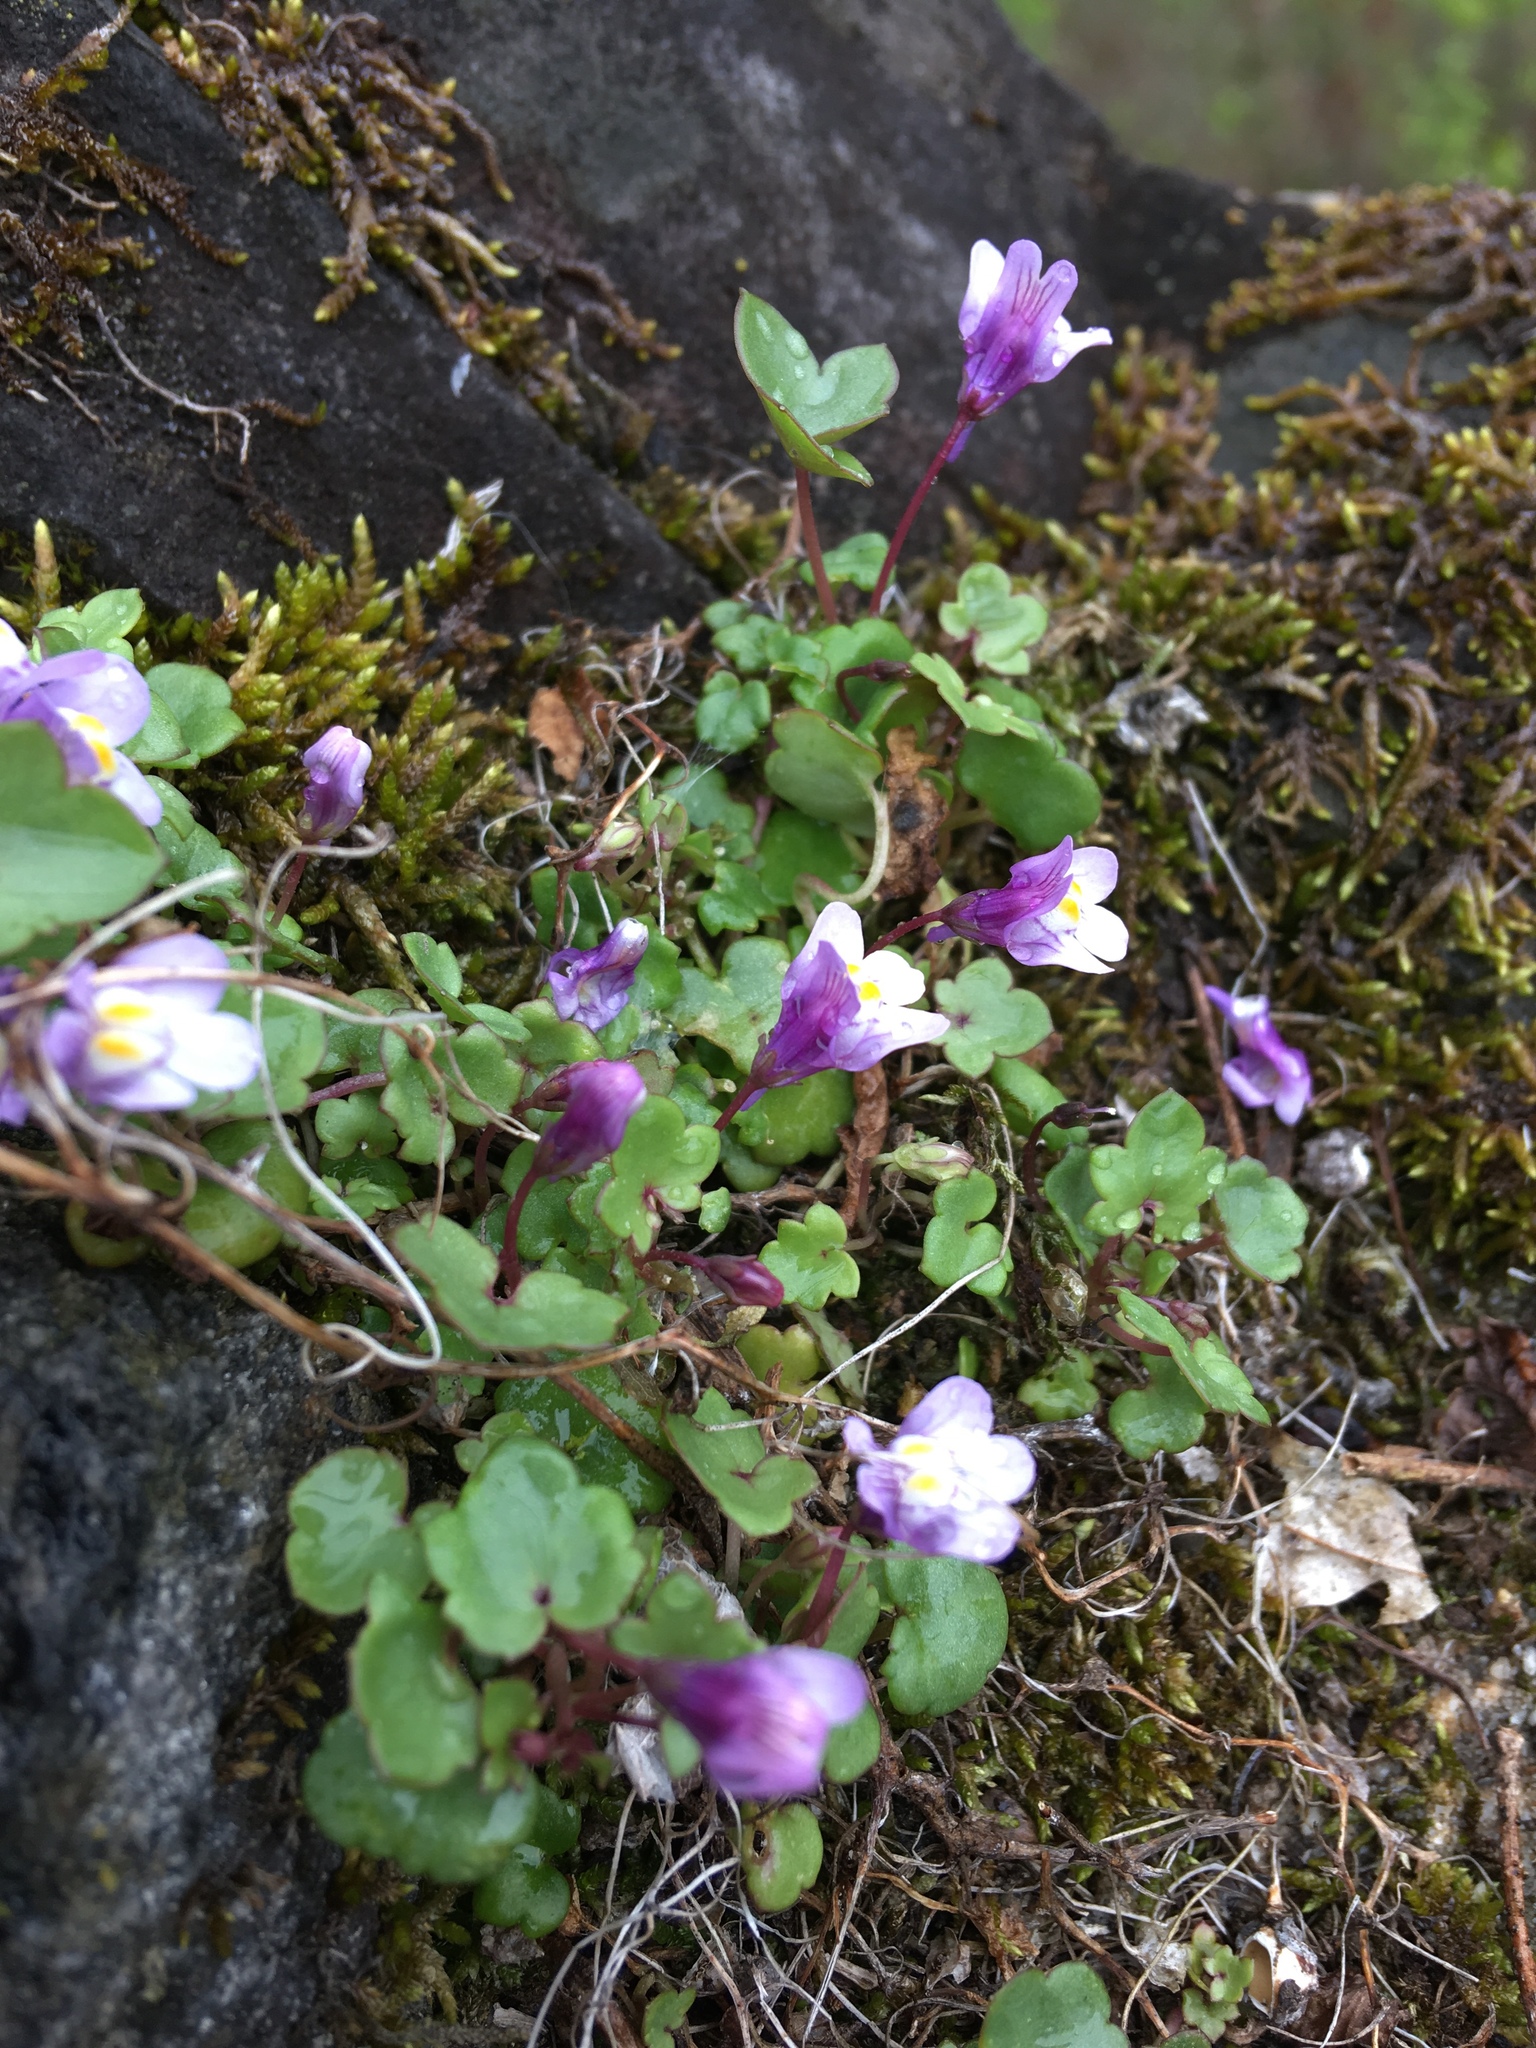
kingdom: Plantae
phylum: Tracheophyta
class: Magnoliopsida
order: Lamiales
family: Plantaginaceae
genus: Cymbalaria
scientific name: Cymbalaria muralis
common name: Ivy-leaved toadflax
